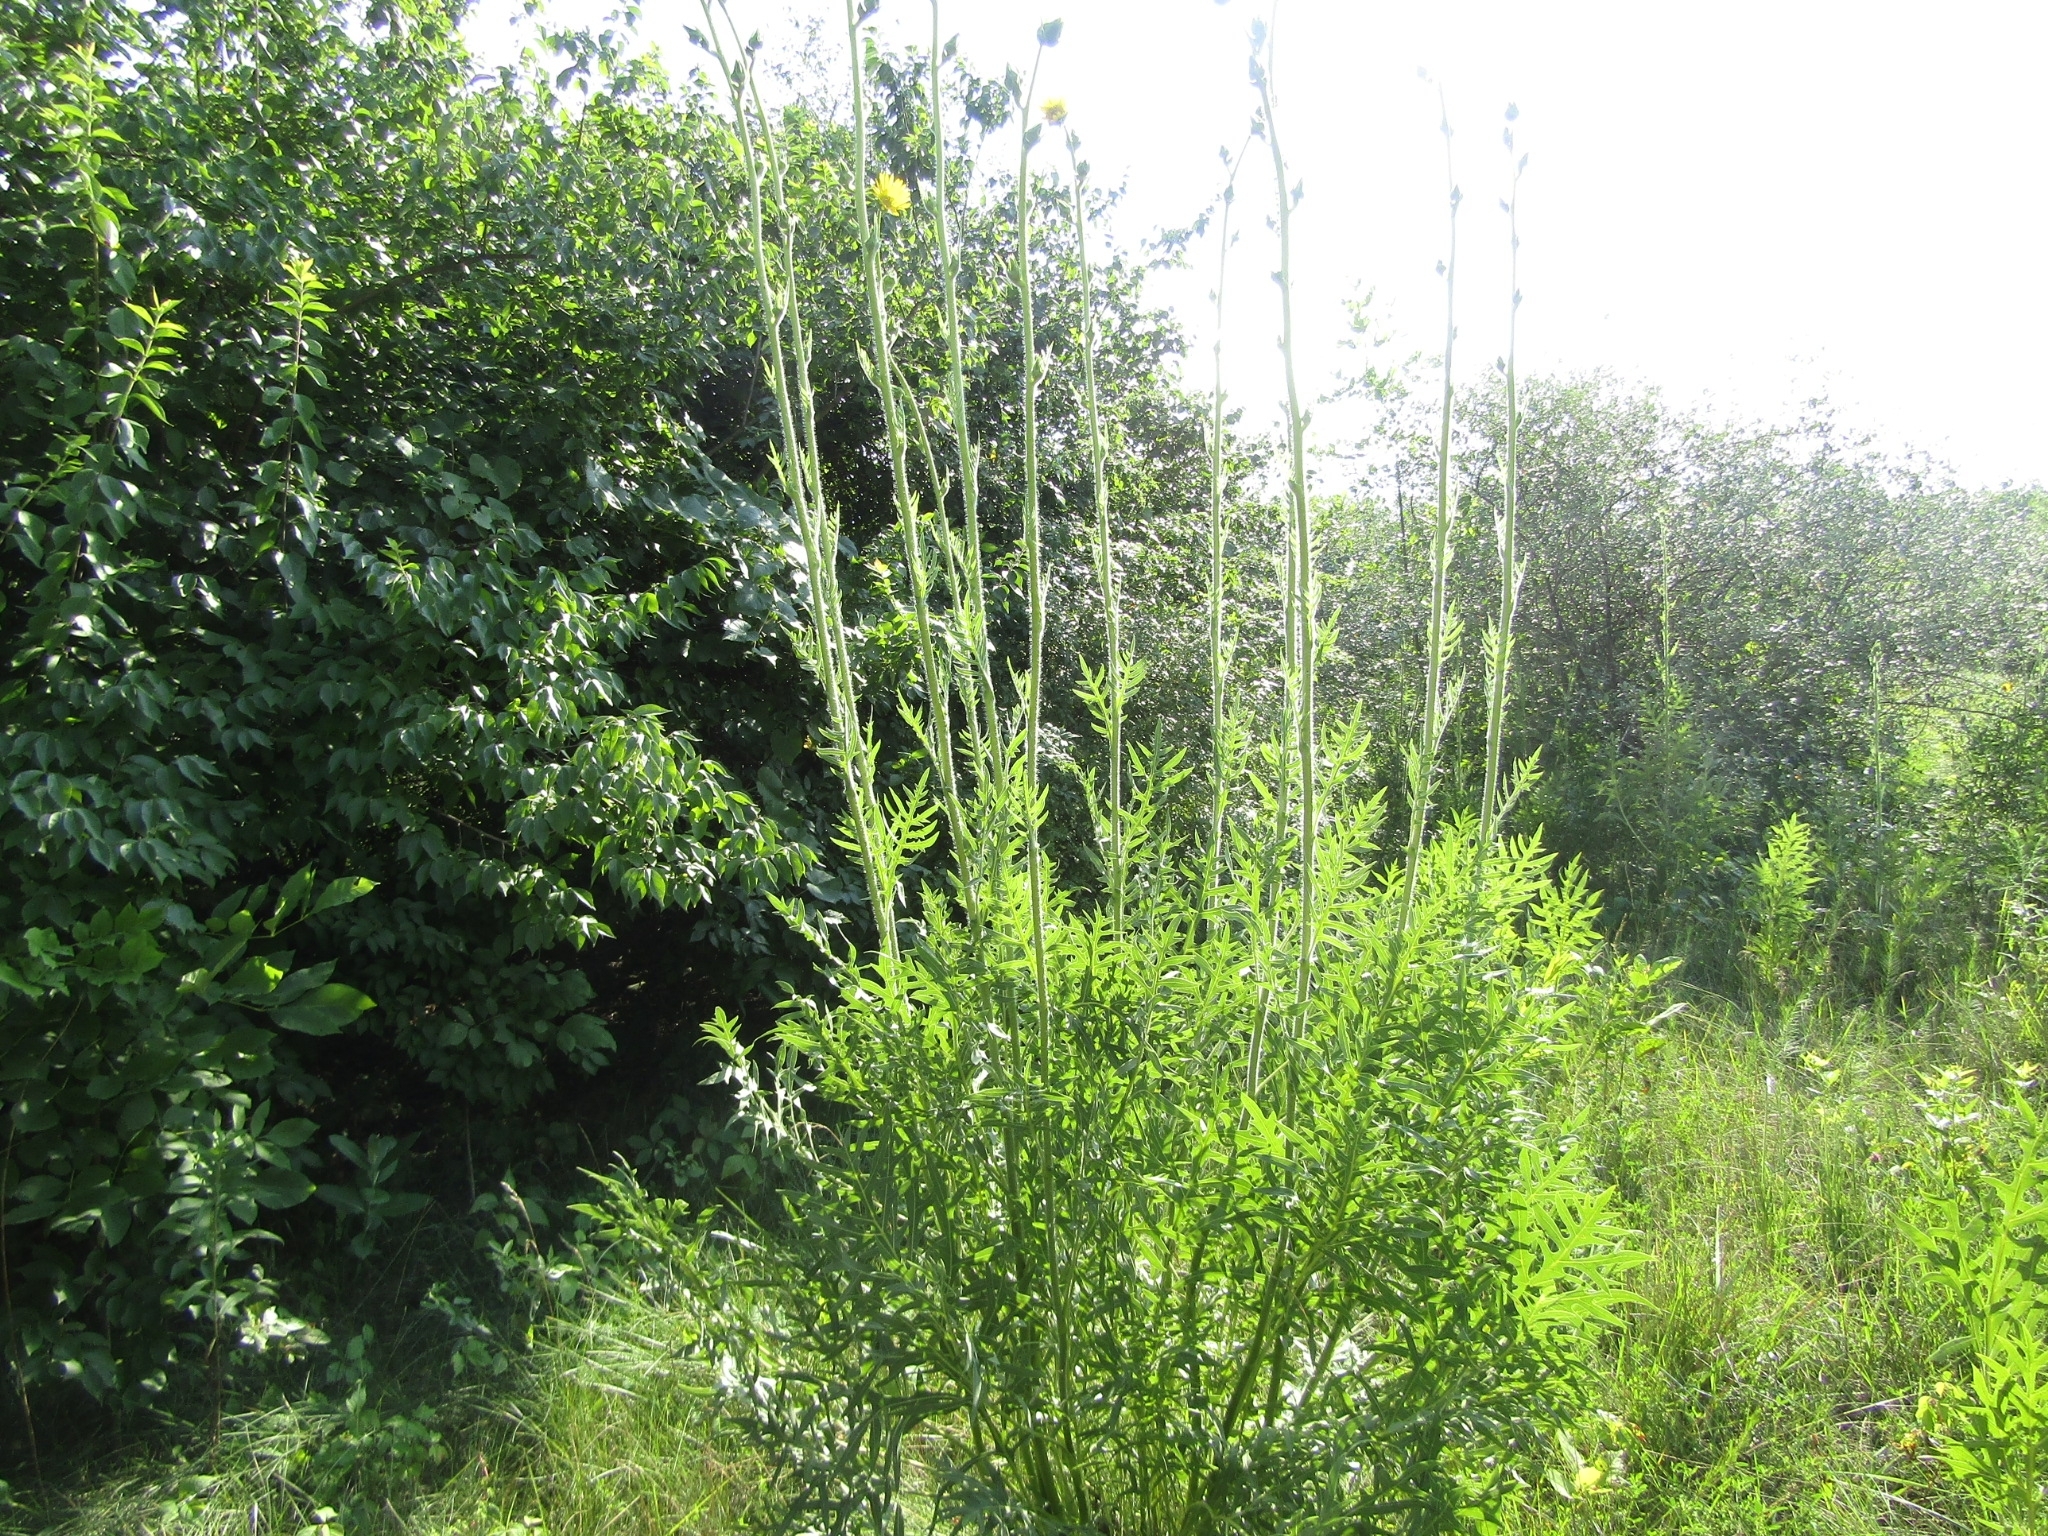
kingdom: Plantae
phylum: Tracheophyta
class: Magnoliopsida
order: Asterales
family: Asteraceae
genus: Silphium
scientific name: Silphium laciniatum
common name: Polarplant
